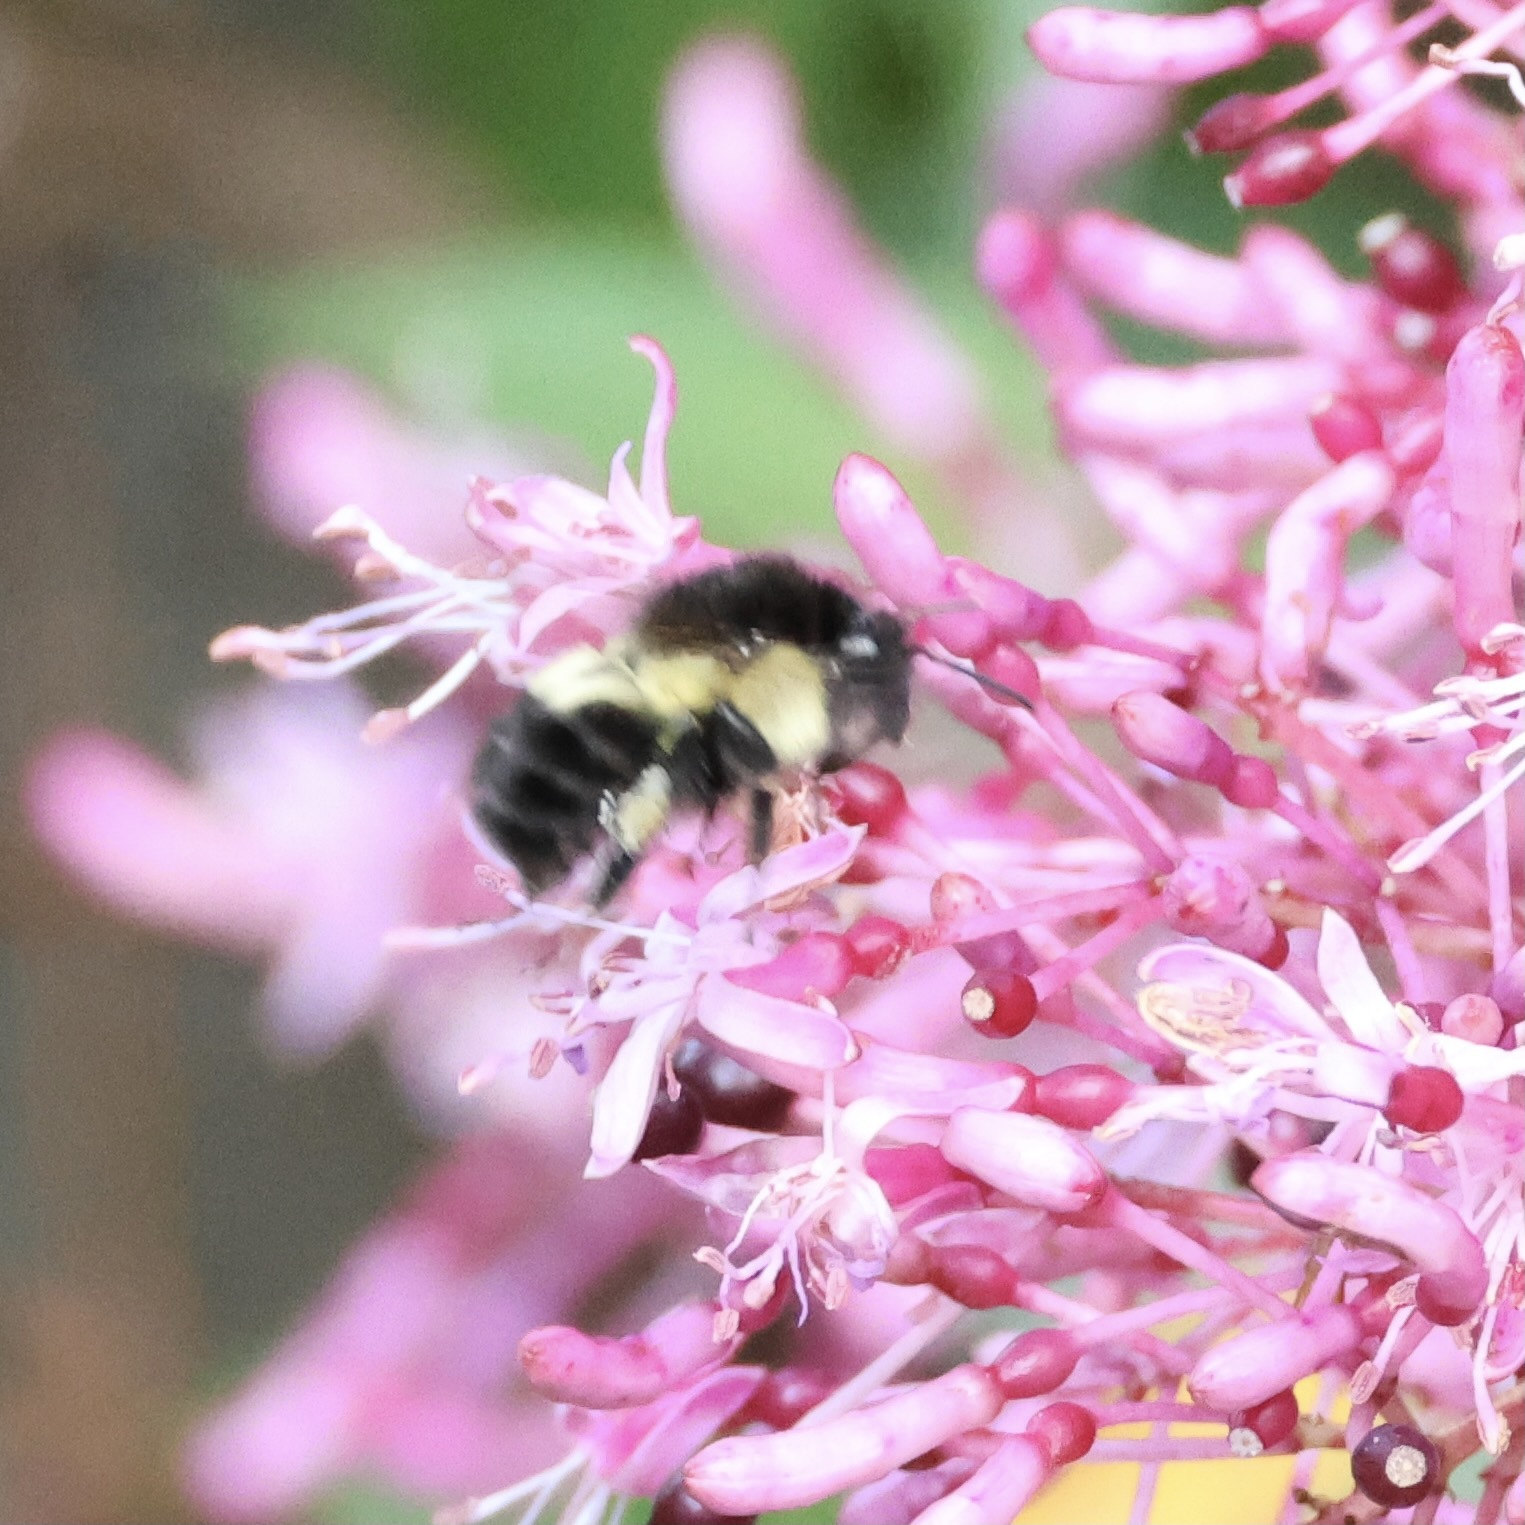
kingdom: Animalia
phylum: Arthropoda
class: Insecta
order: Hymenoptera
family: Apidae
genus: Bombus
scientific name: Bombus ephippiatus
